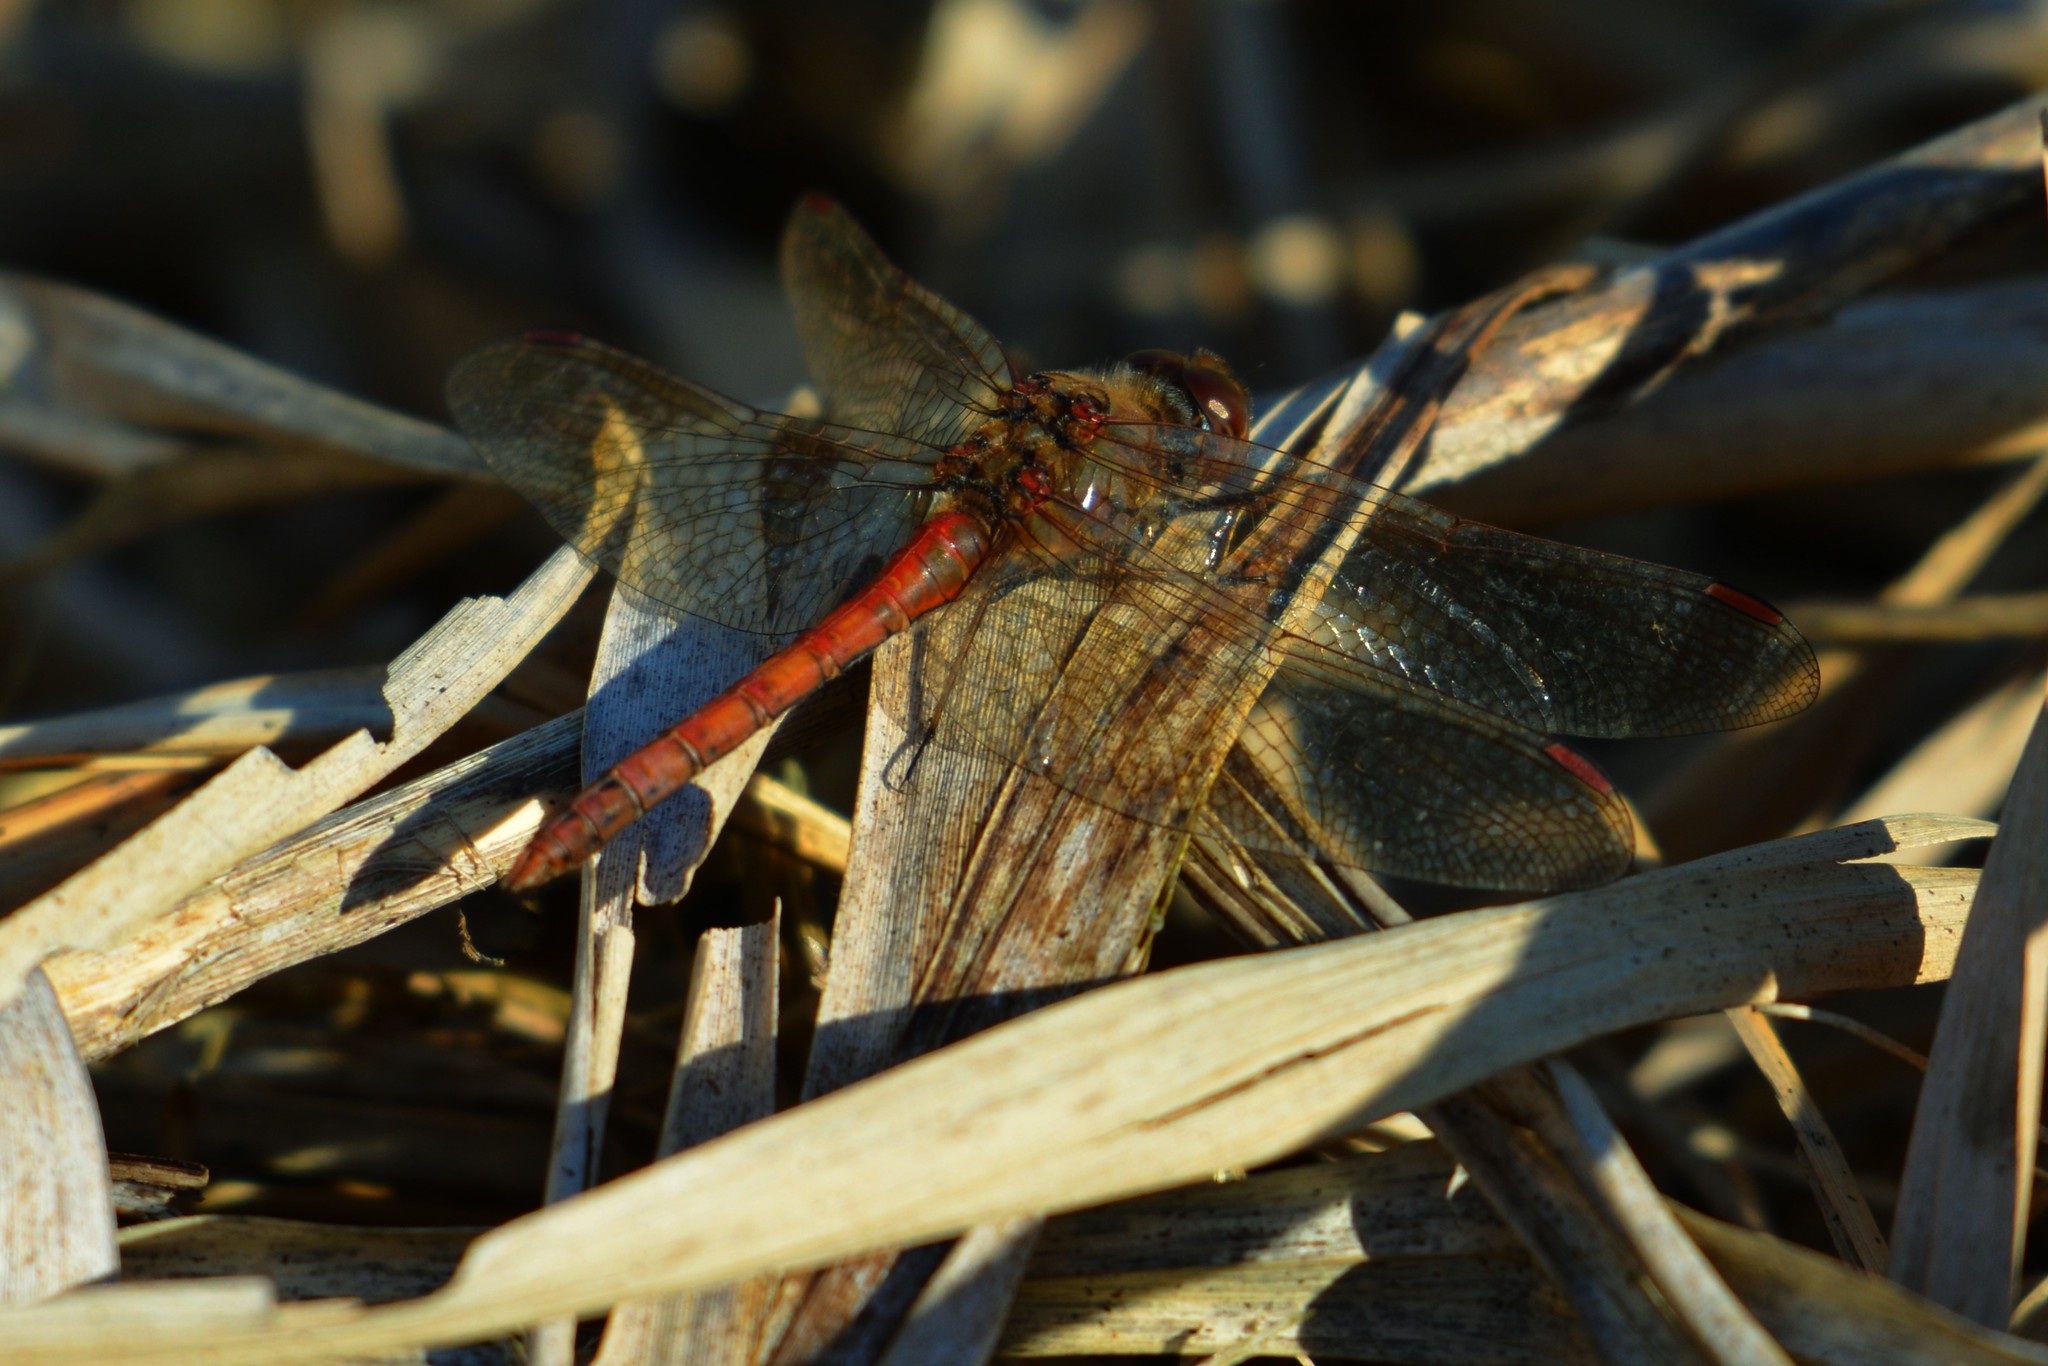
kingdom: Animalia
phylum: Arthropoda
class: Insecta
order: Odonata
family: Libellulidae
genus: Sympetrum
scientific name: Sympetrum striolatum
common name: Common darter
